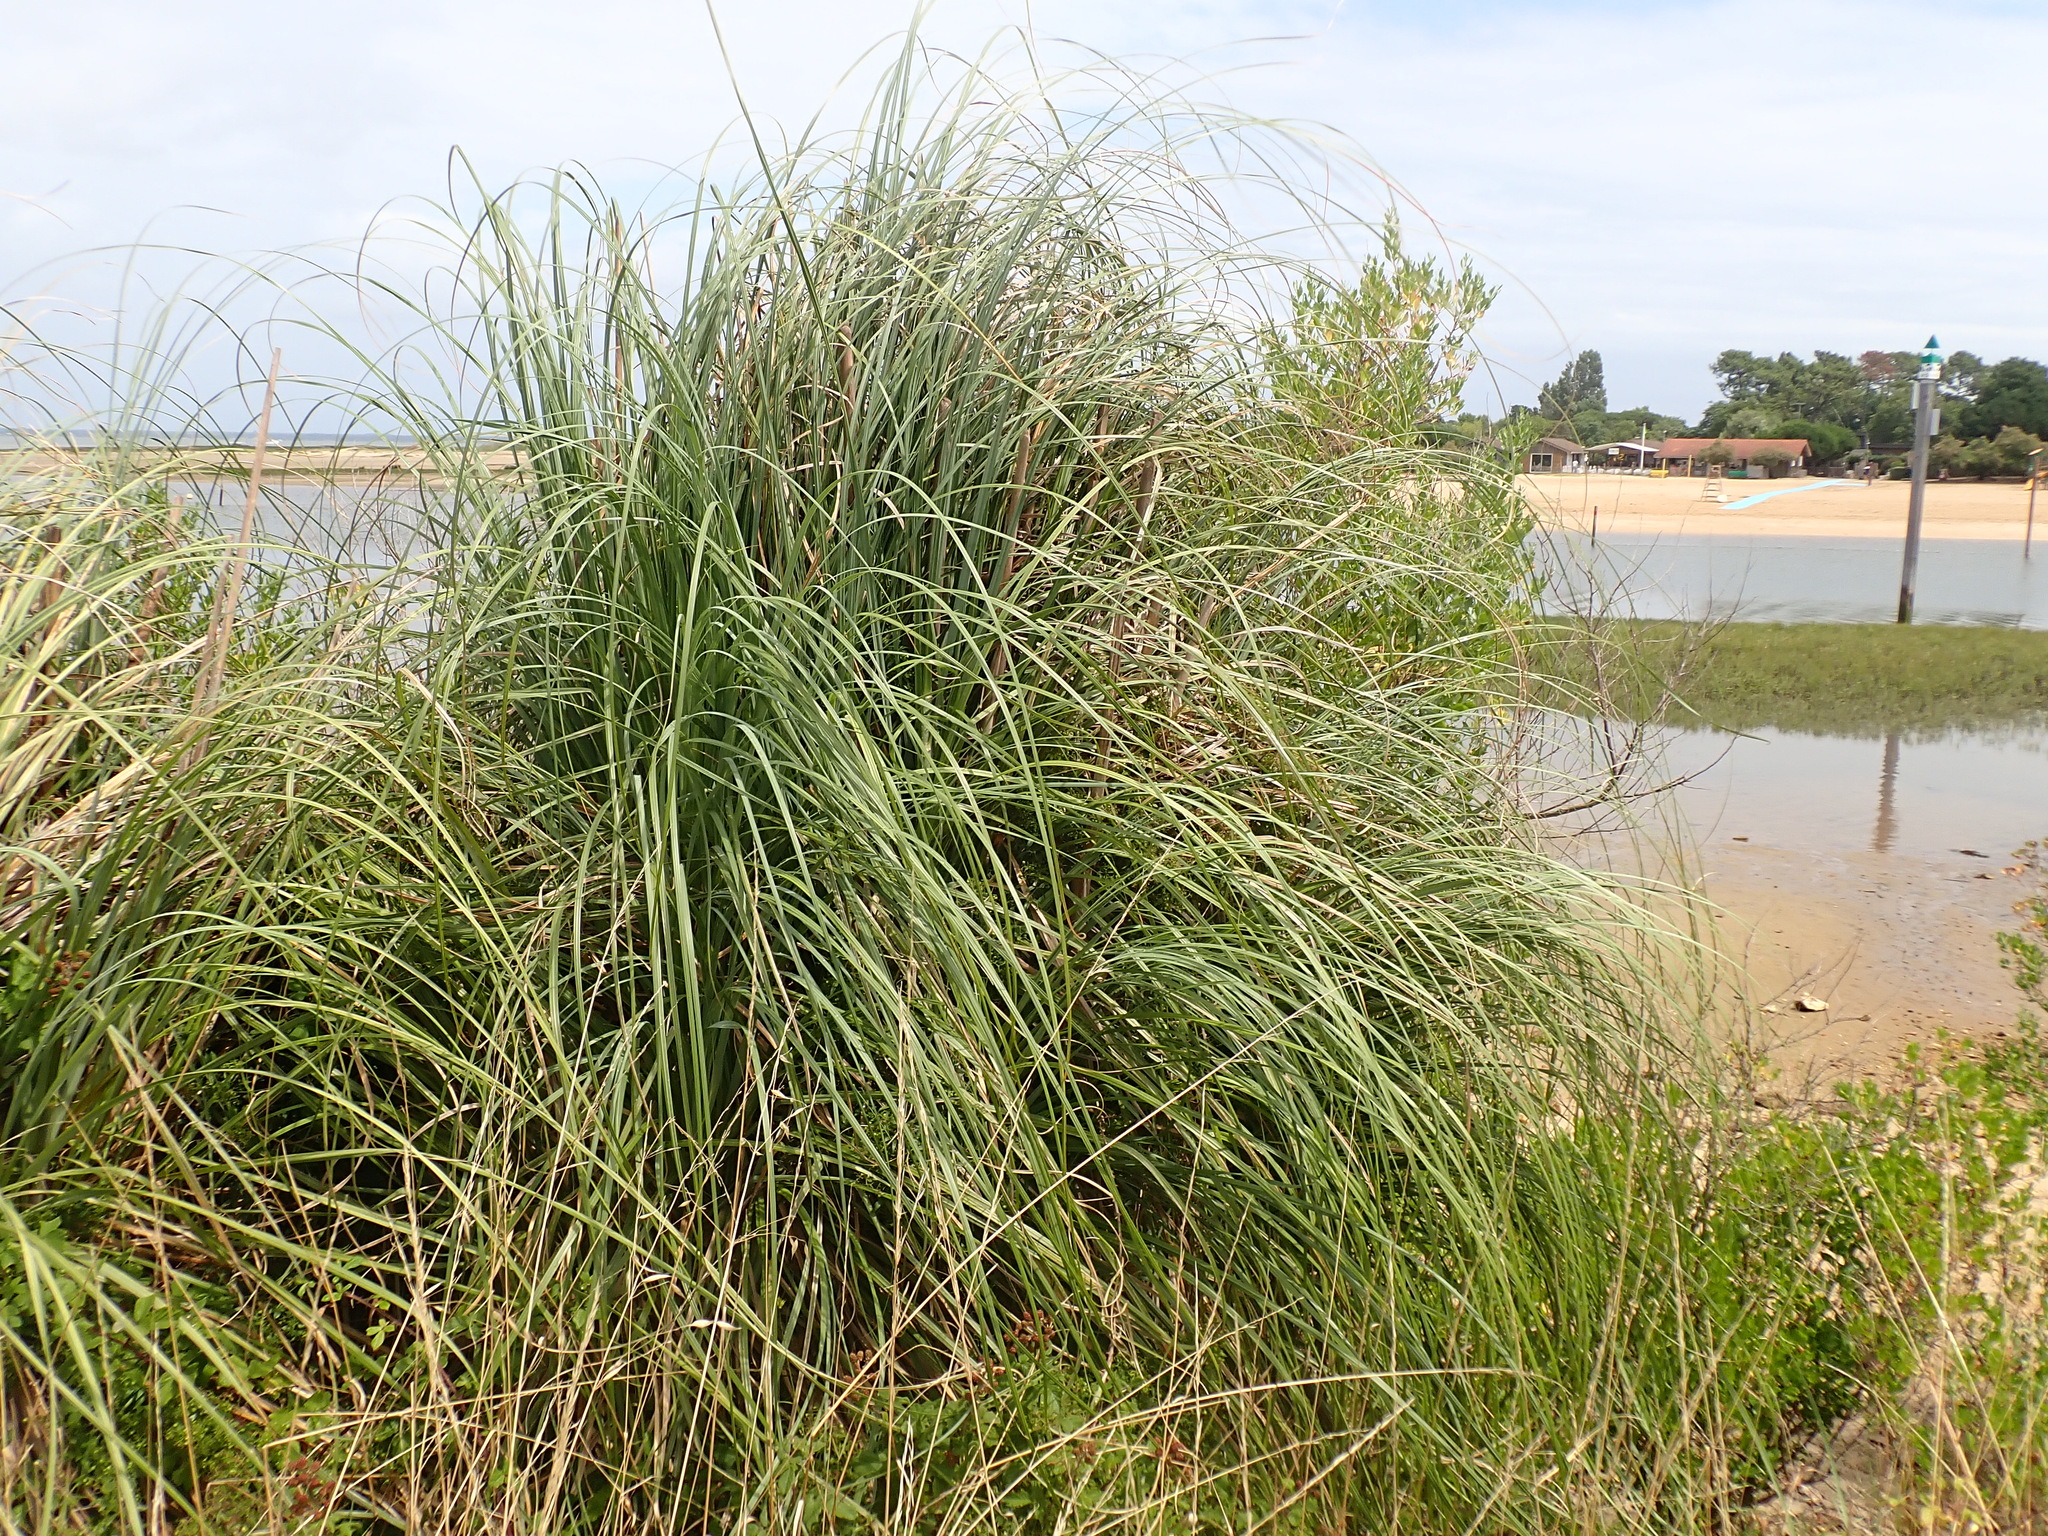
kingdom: Plantae
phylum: Tracheophyta
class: Liliopsida
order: Poales
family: Poaceae
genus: Cortaderia
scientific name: Cortaderia selloana
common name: Uruguayan pampas grass
